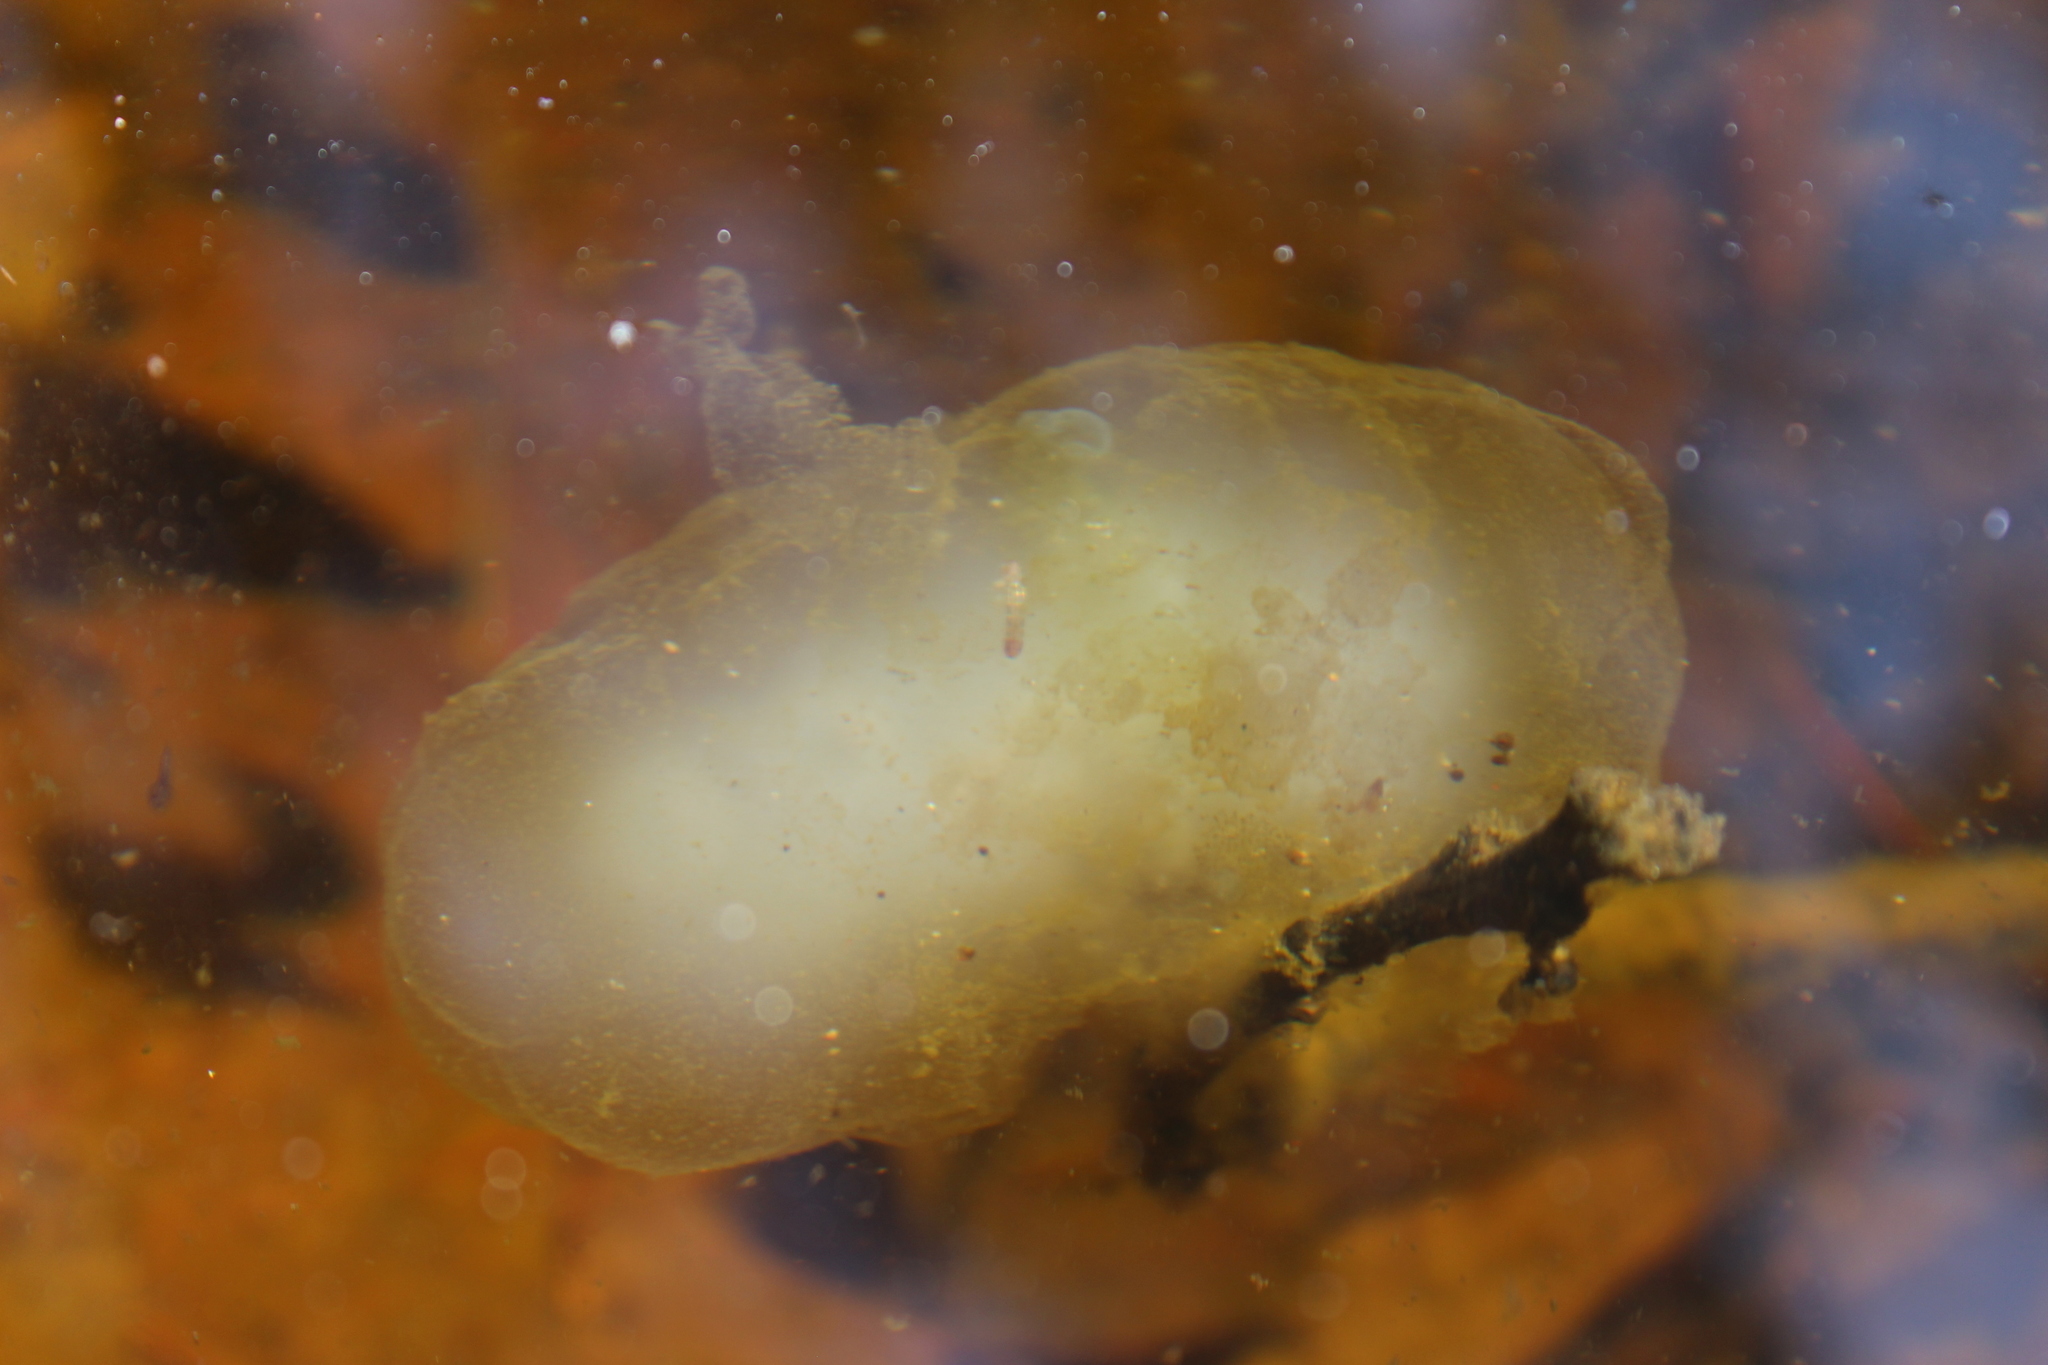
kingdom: Animalia
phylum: Chordata
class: Amphibia
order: Caudata
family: Ambystomatidae
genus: Ambystoma
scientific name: Ambystoma maculatum
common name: Spotted salamander
